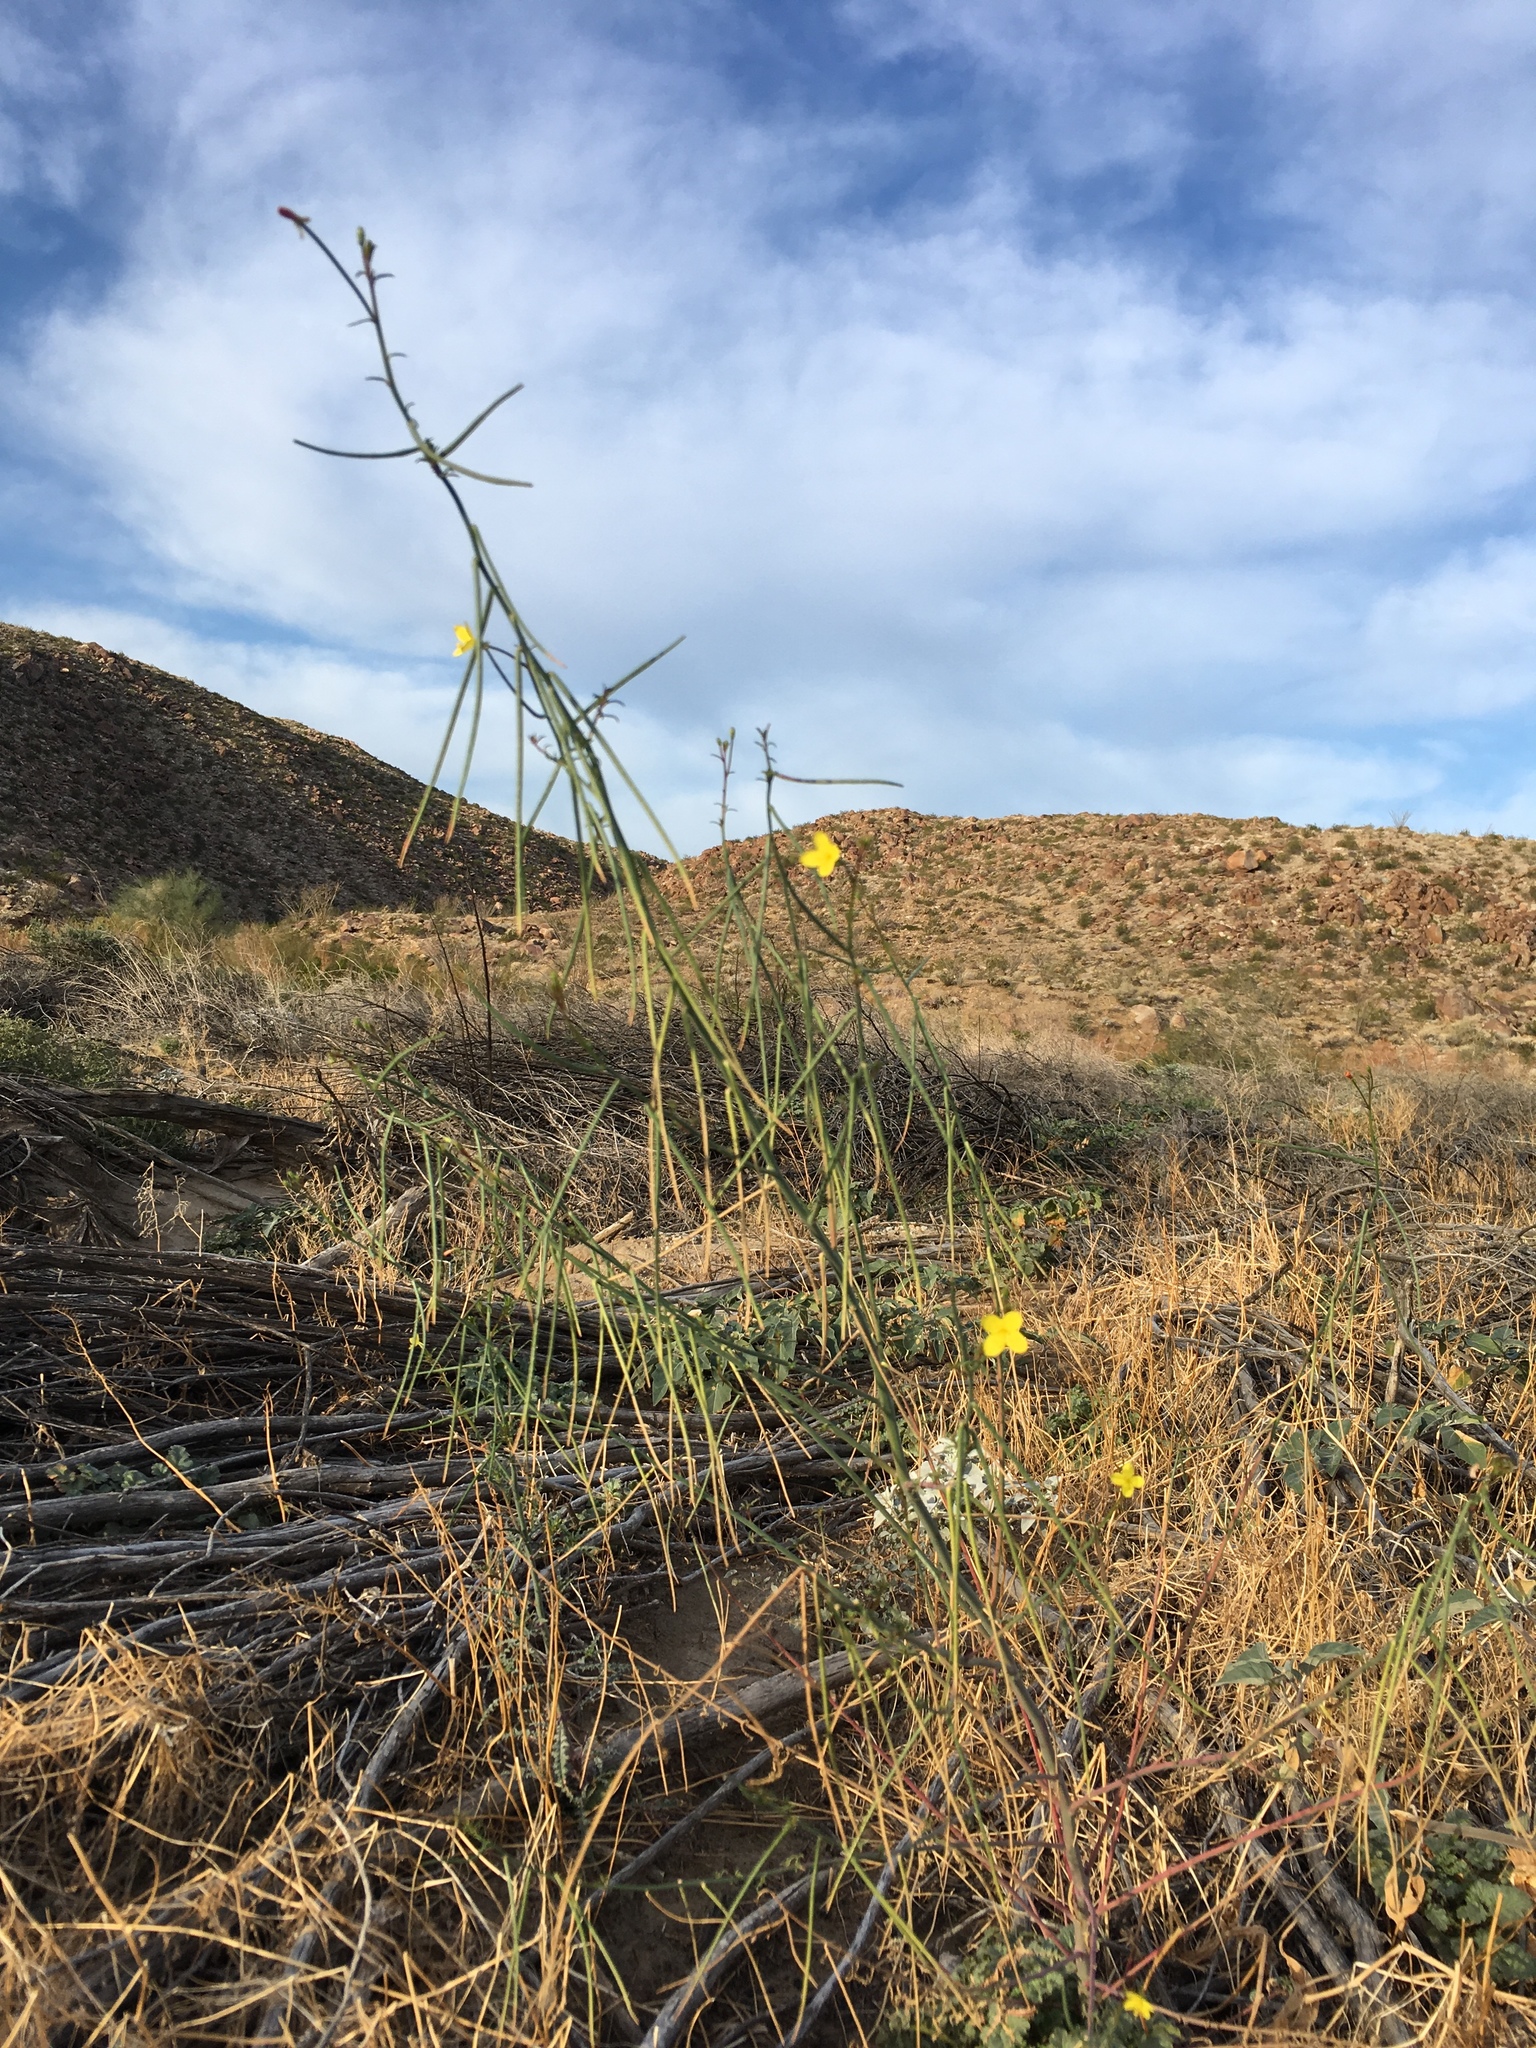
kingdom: Plantae
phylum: Tracheophyta
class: Magnoliopsida
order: Myrtales
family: Onagraceae
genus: Eulobus
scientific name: Eulobus californicus
